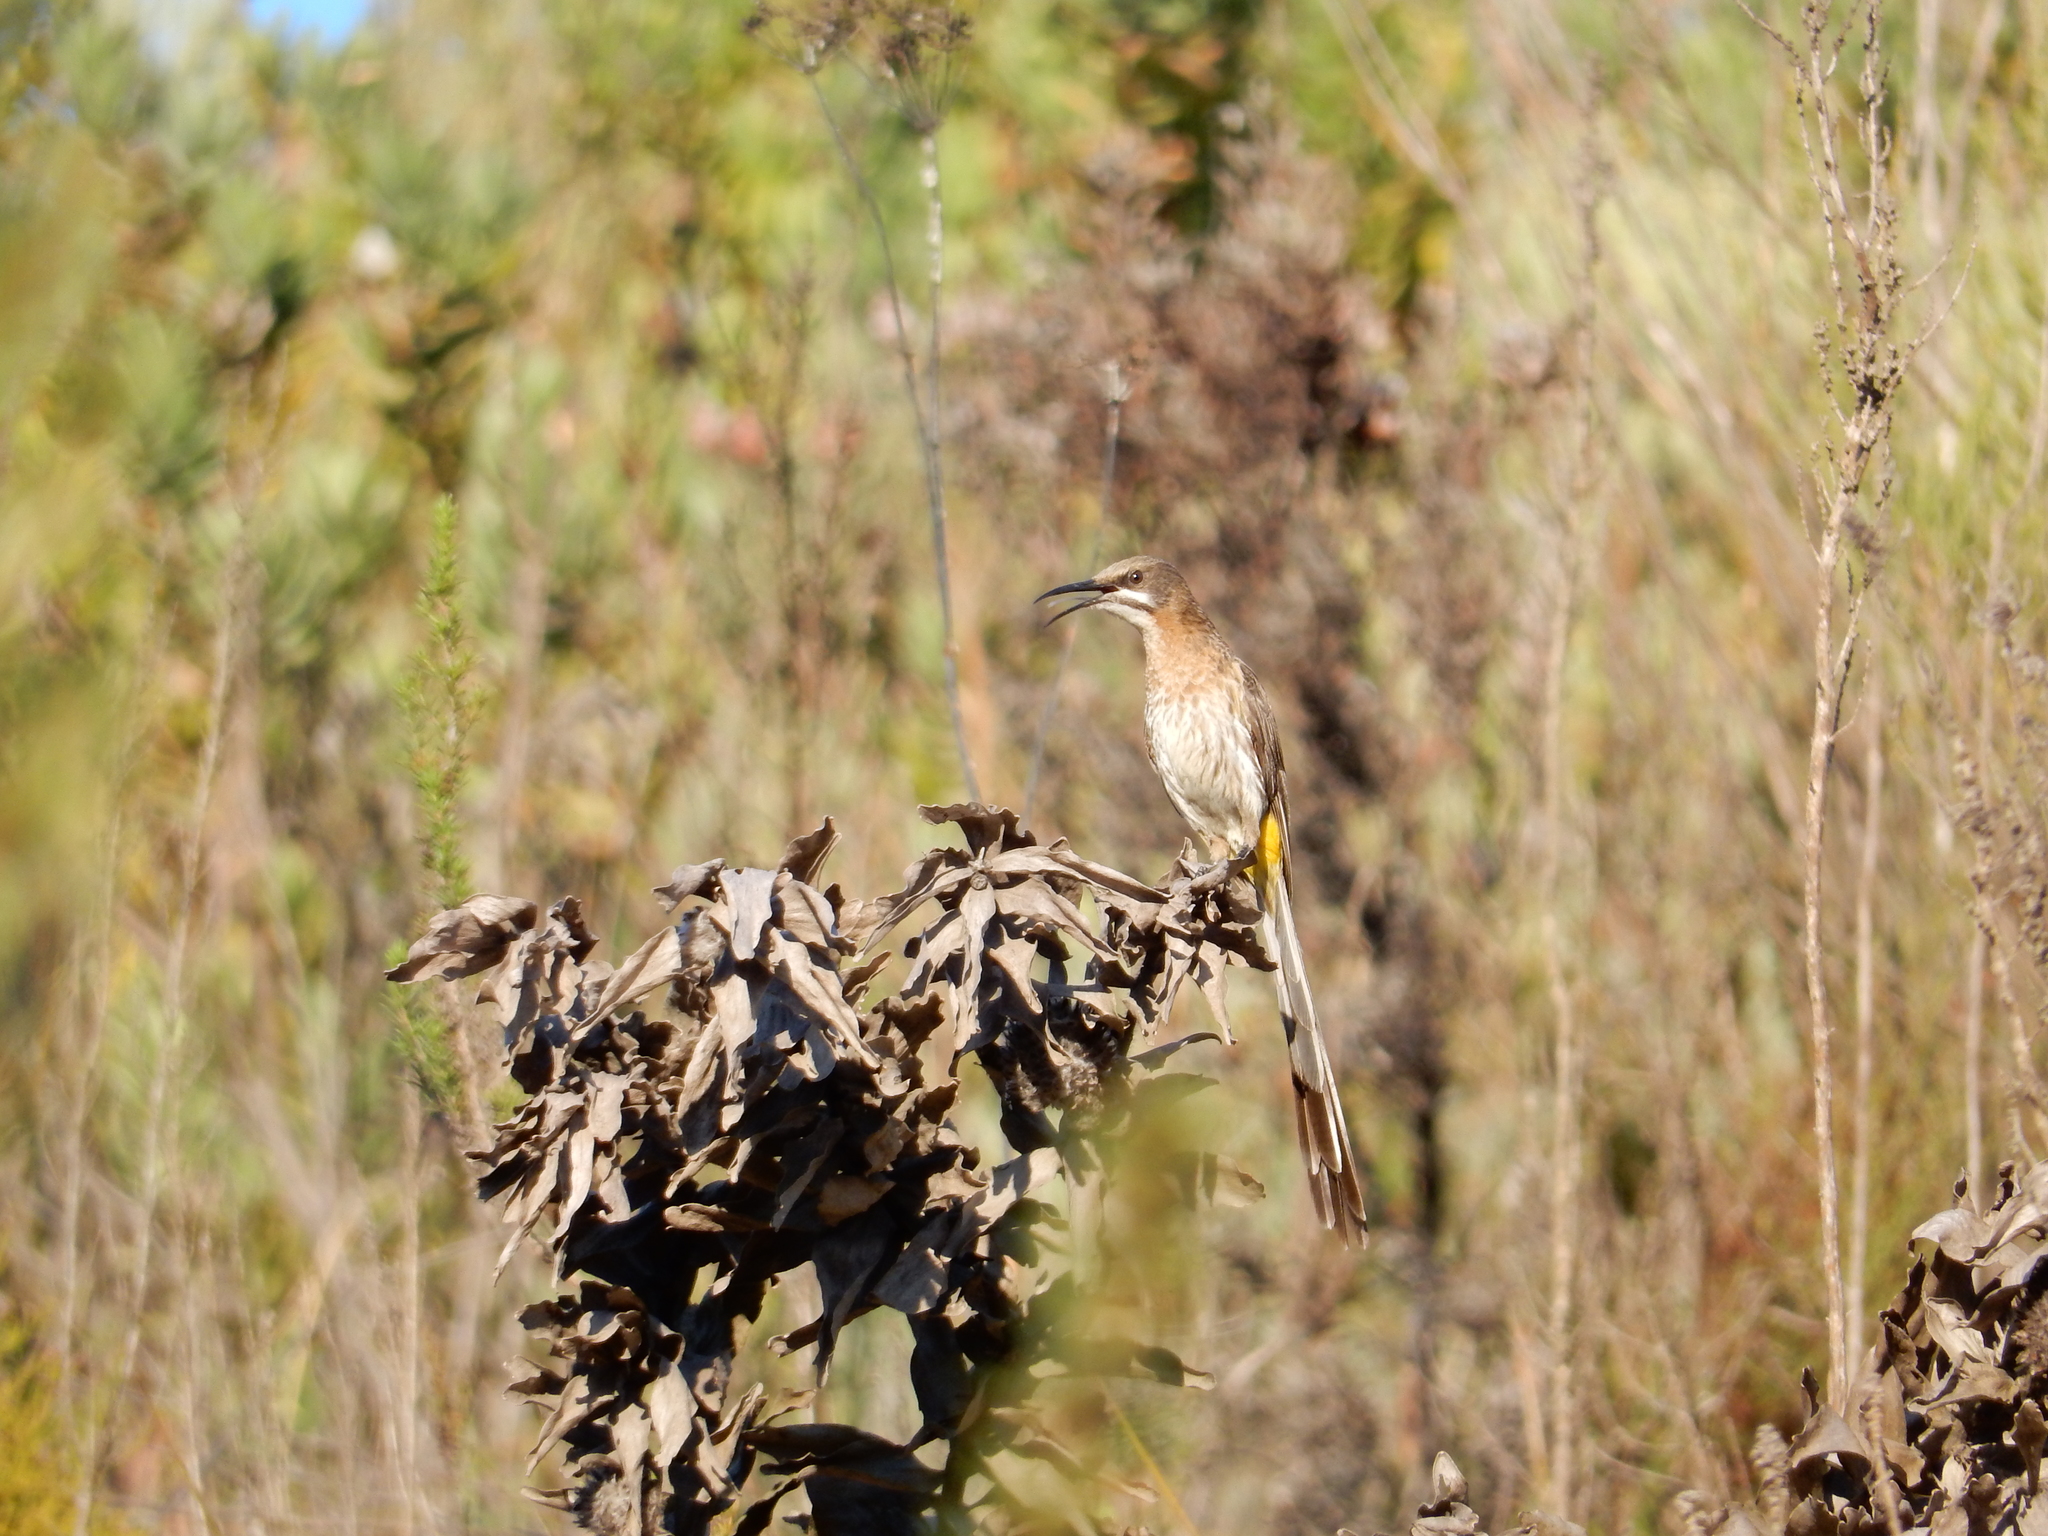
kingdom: Animalia
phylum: Chordata
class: Aves
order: Passeriformes
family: Promeropidae
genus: Promerops
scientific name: Promerops cafer
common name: Cape sugarbird
